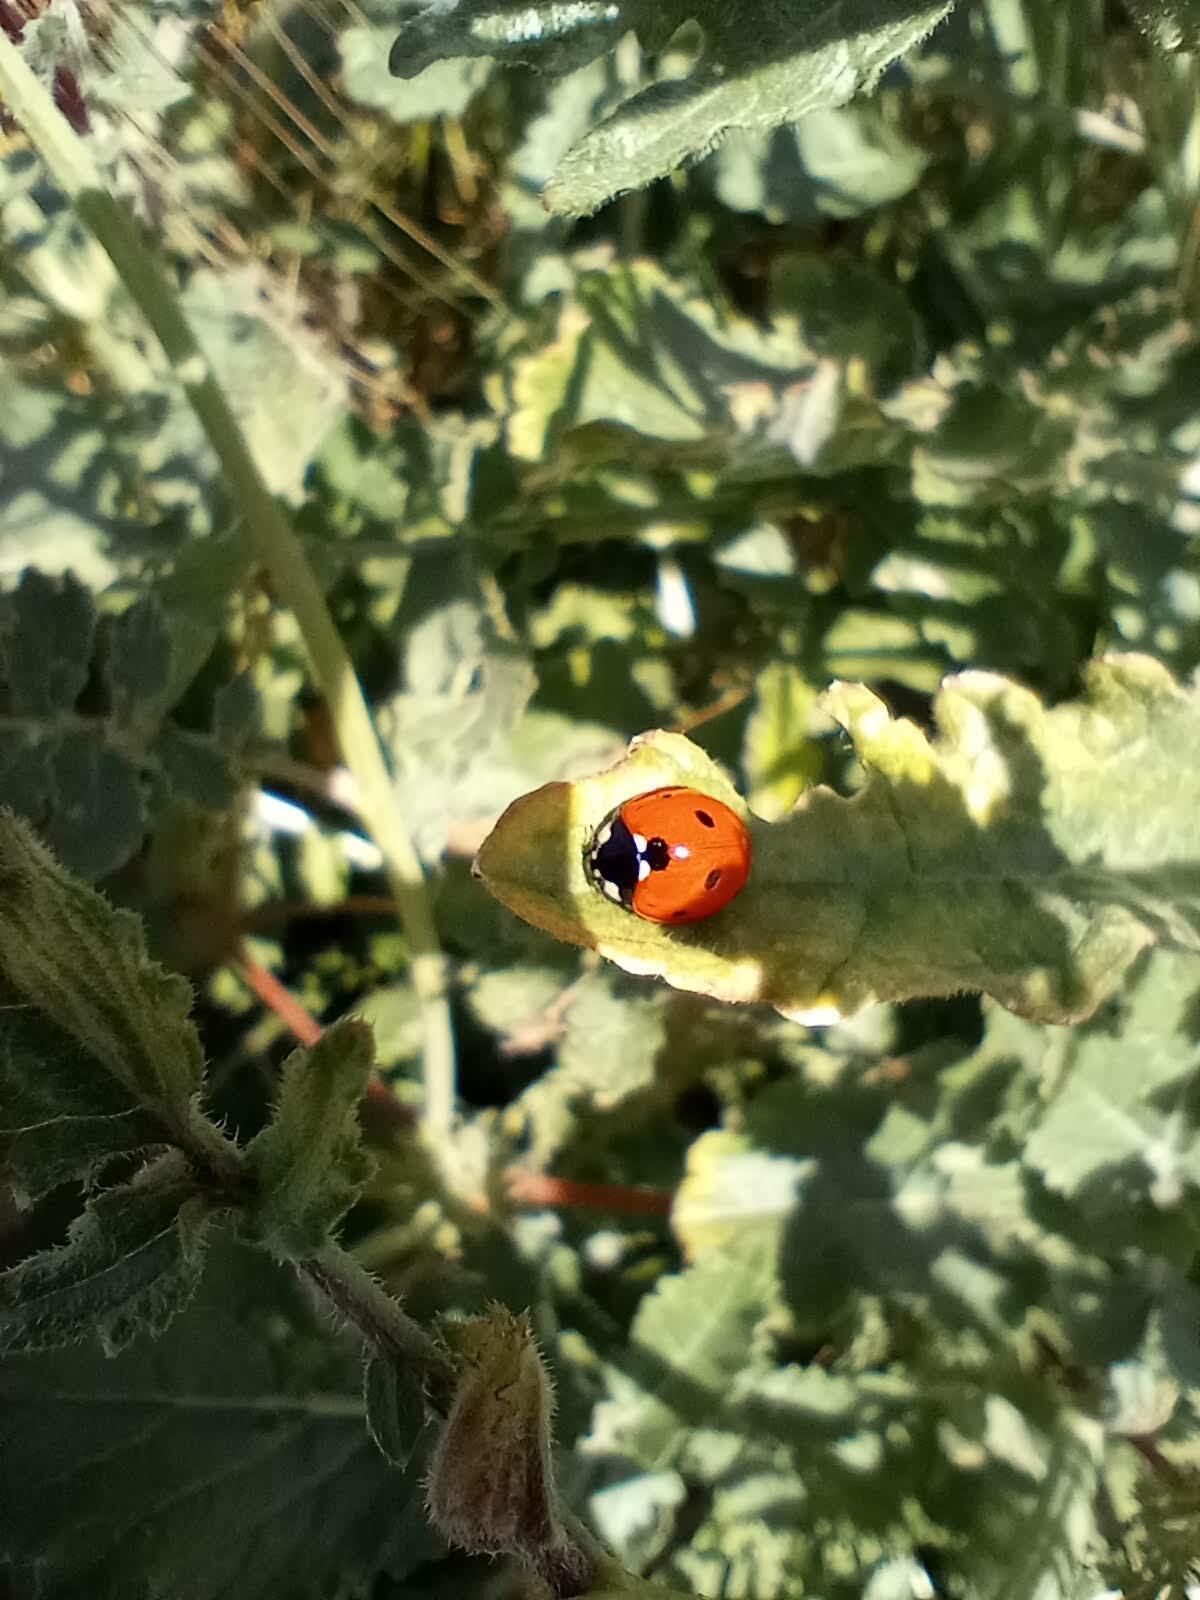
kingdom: Animalia
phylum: Arthropoda
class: Insecta
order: Coleoptera
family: Coccinellidae
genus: Coccinella
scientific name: Coccinella septempunctata
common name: Sevenspotted lady beetle
